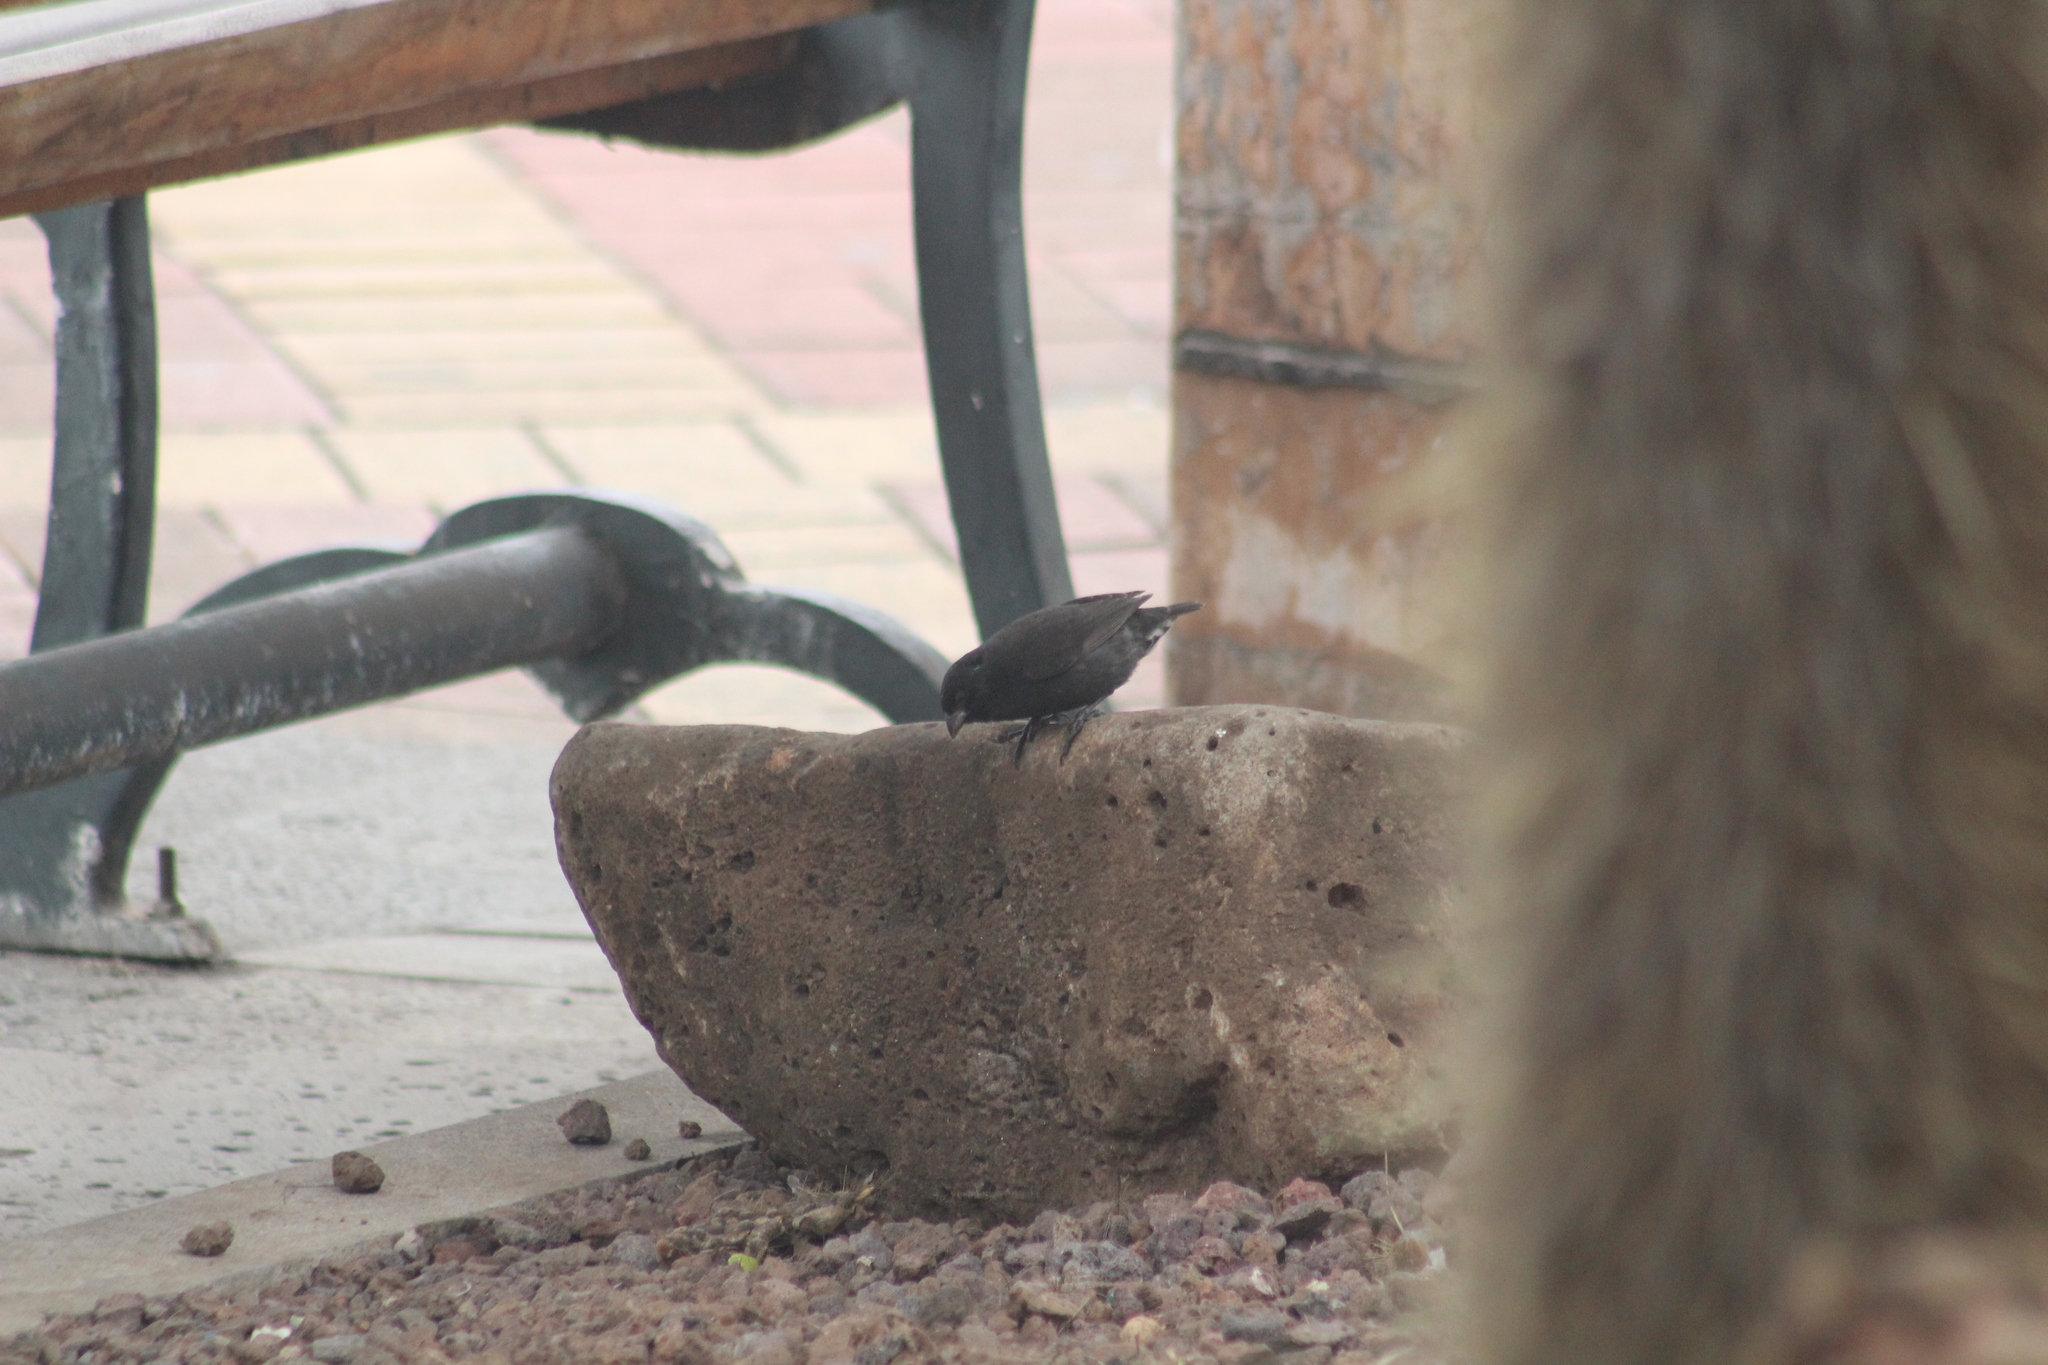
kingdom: Animalia
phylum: Chordata
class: Aves
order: Passeriformes
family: Thraupidae
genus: Geospiza
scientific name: Geospiza fuliginosa
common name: Small ground finch
